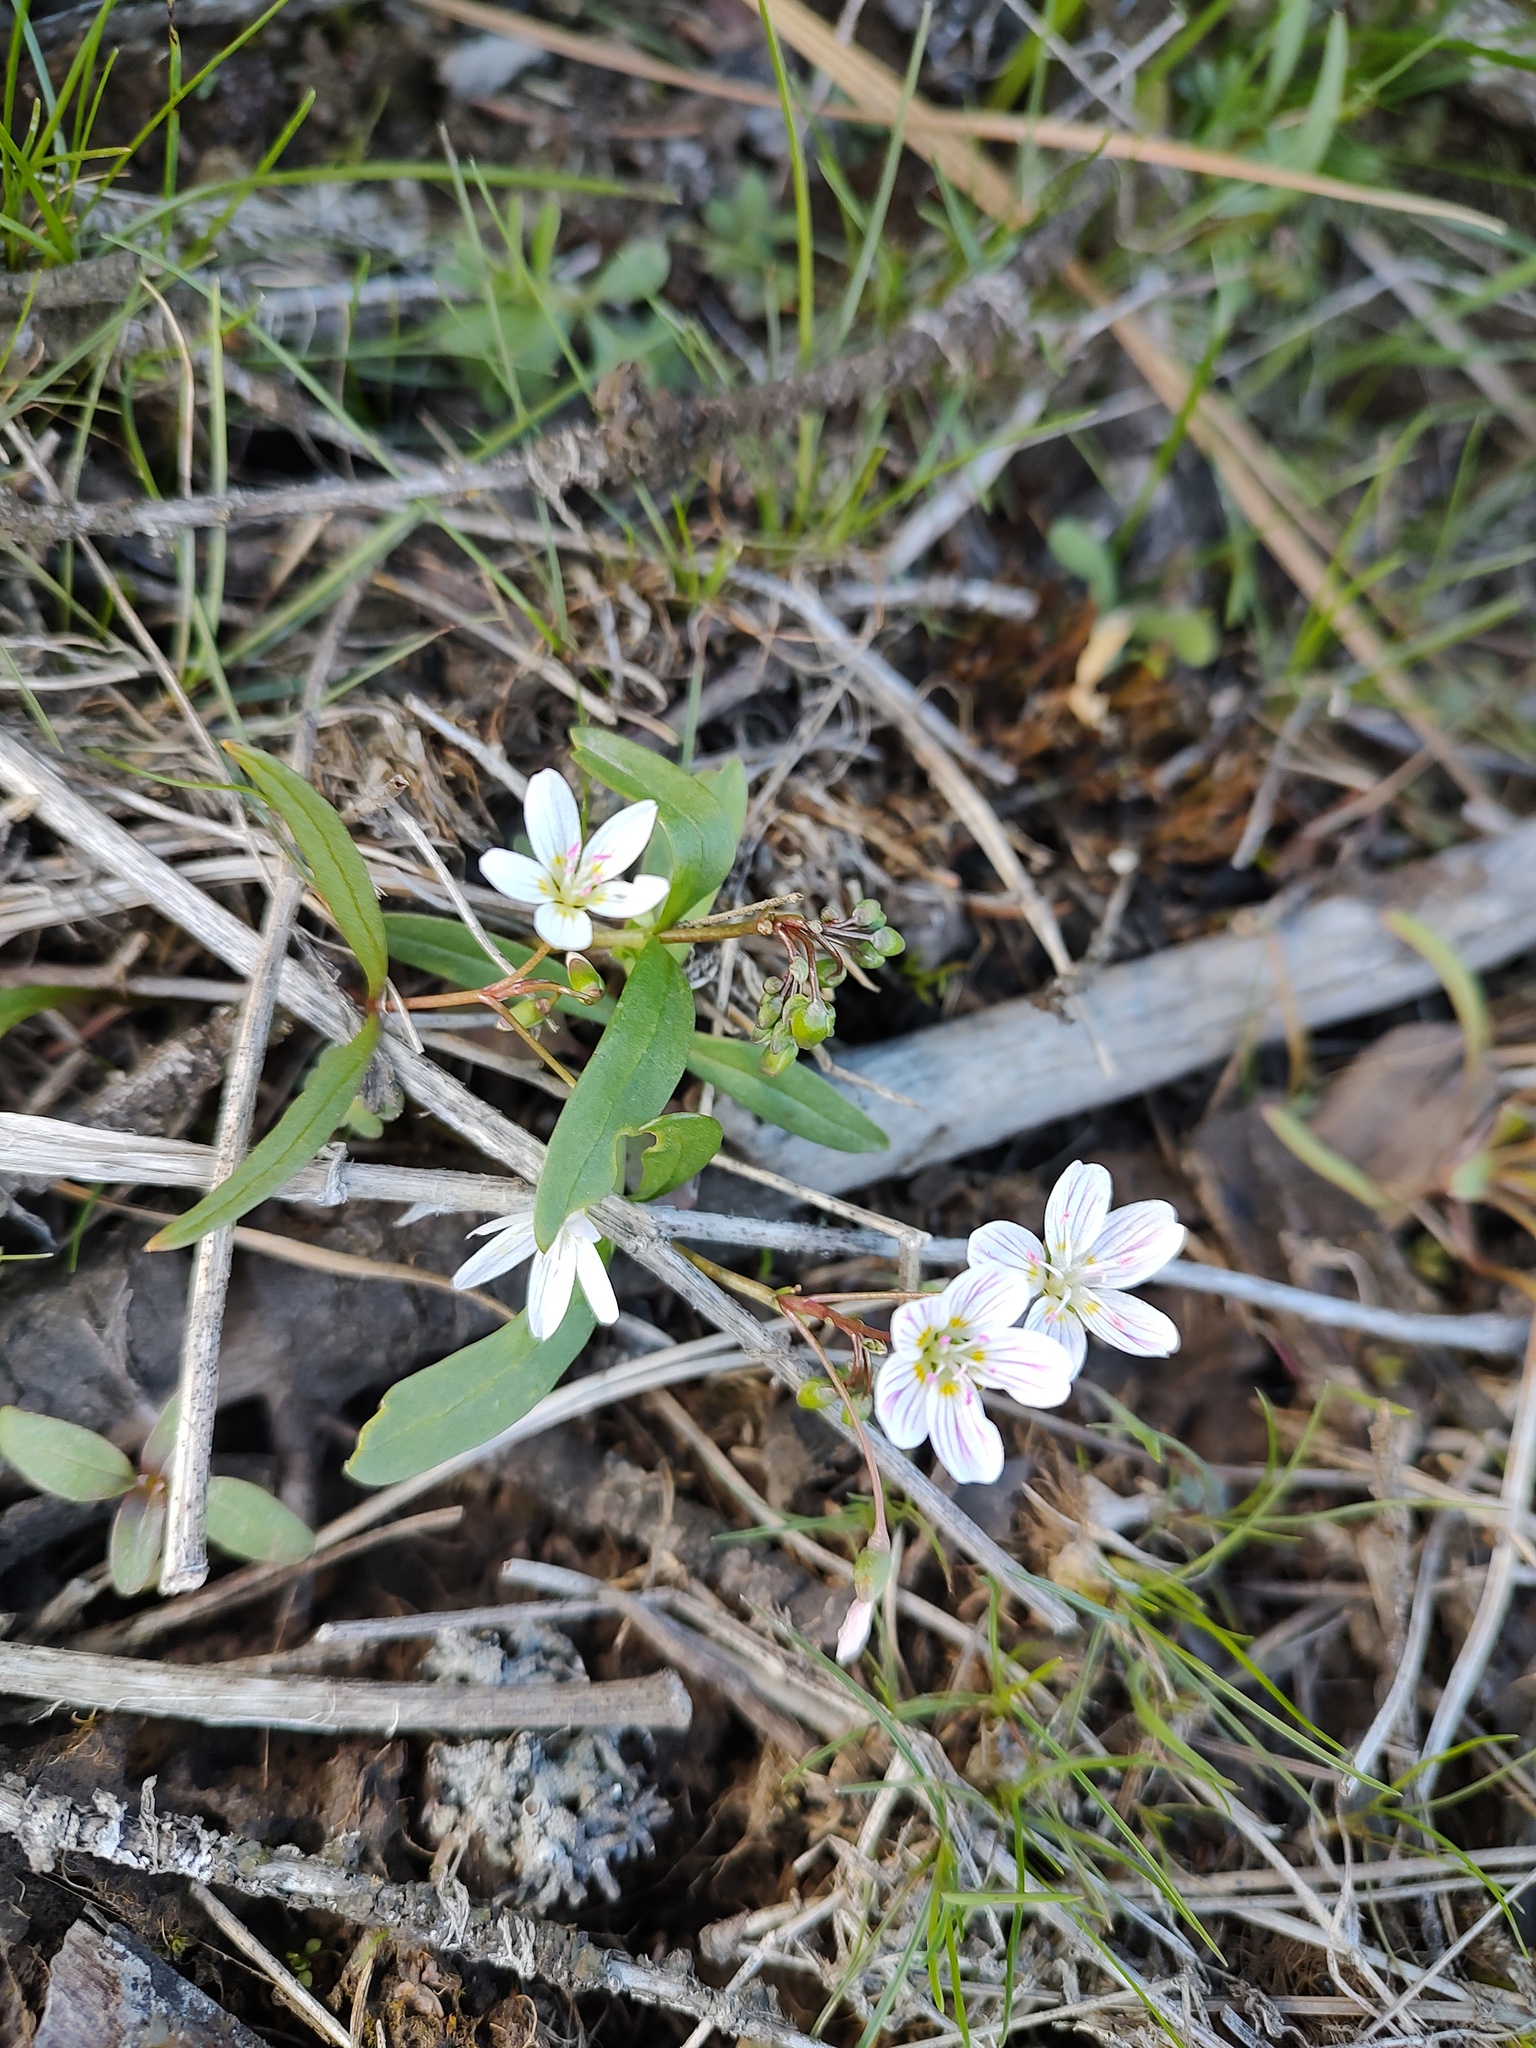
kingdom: Plantae
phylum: Tracheophyta
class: Magnoliopsida
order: Caryophyllales
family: Montiaceae
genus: Claytonia
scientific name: Claytonia lanceolata
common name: Western spring-beauty
